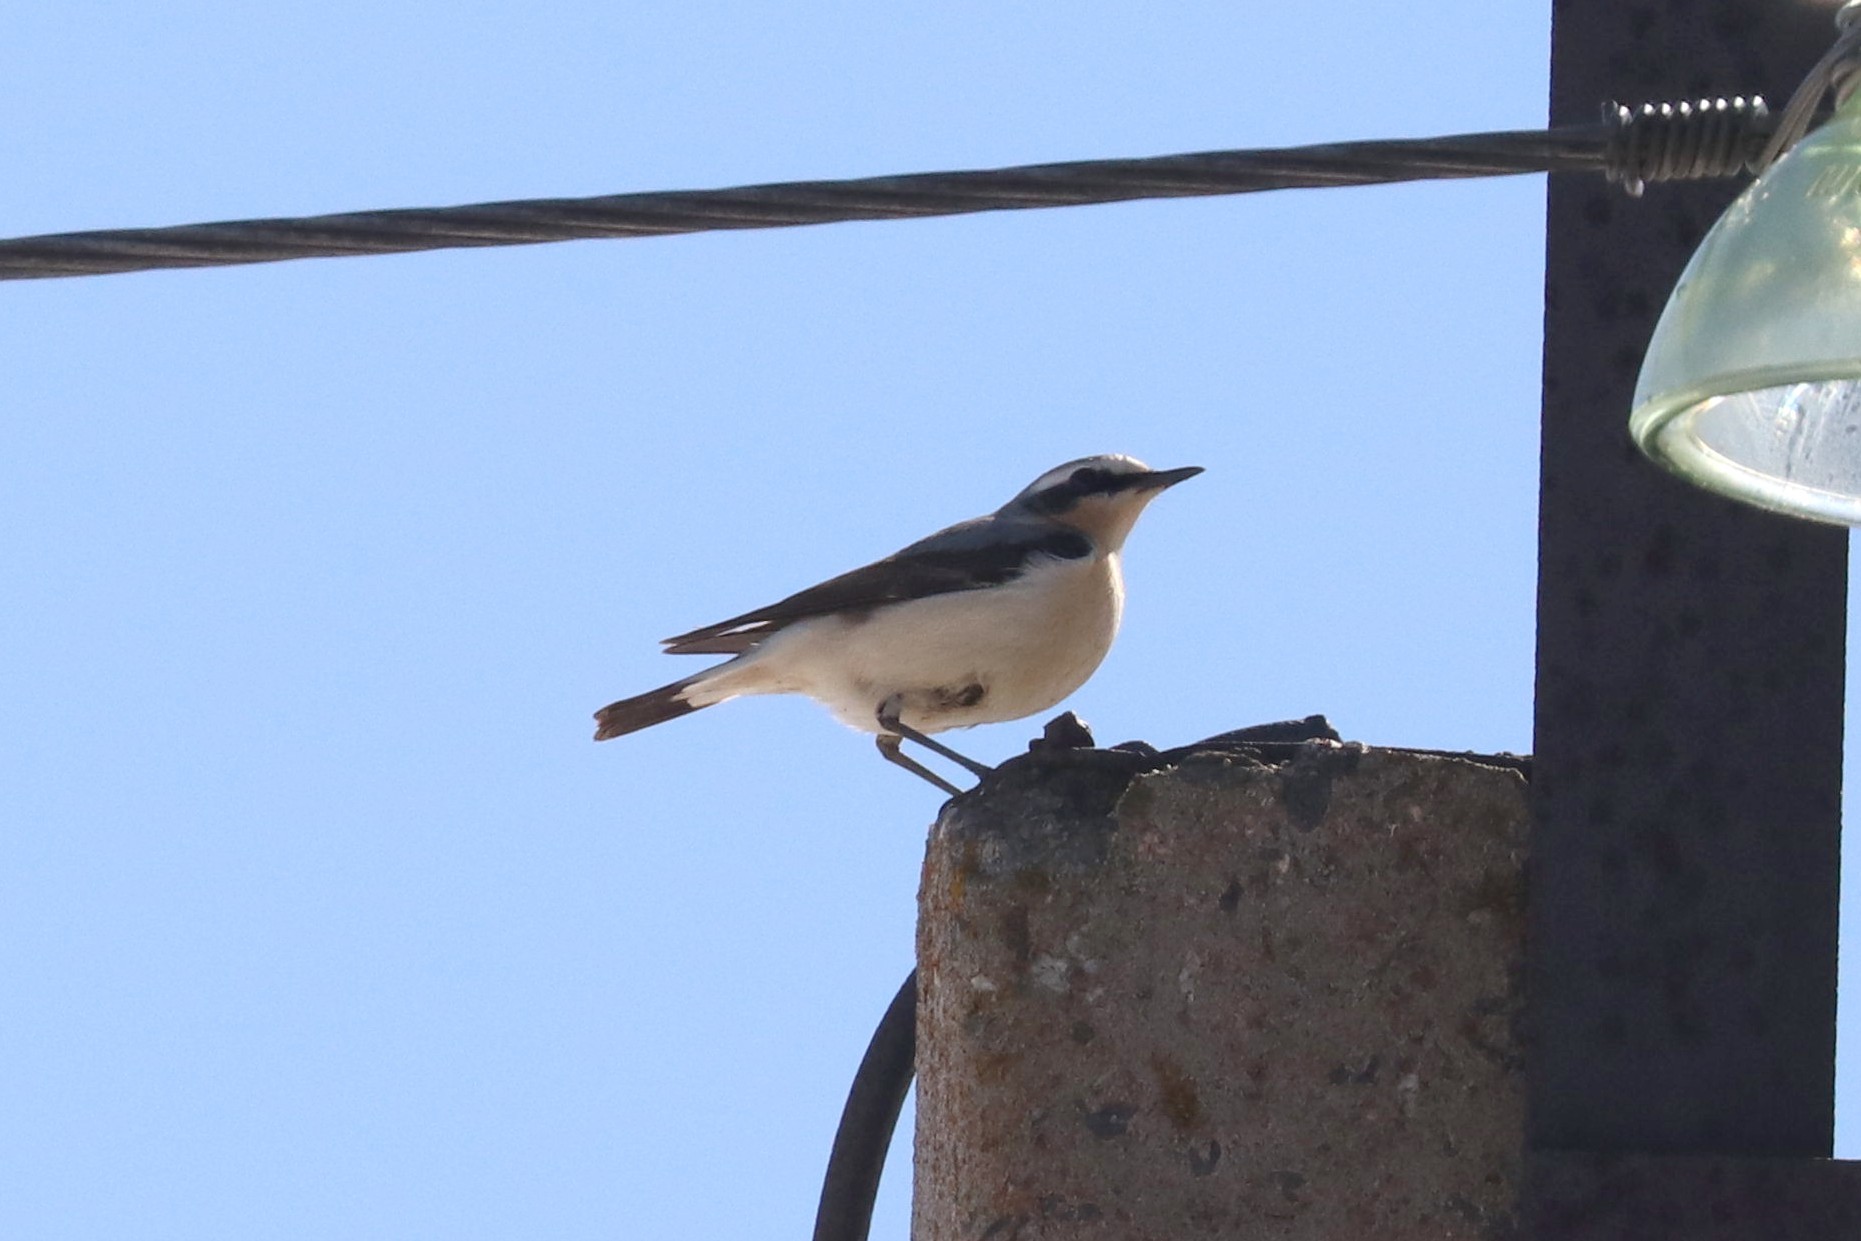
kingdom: Animalia
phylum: Chordata
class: Aves
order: Passeriformes
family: Muscicapidae
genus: Oenanthe
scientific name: Oenanthe oenanthe
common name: Northern wheatear
